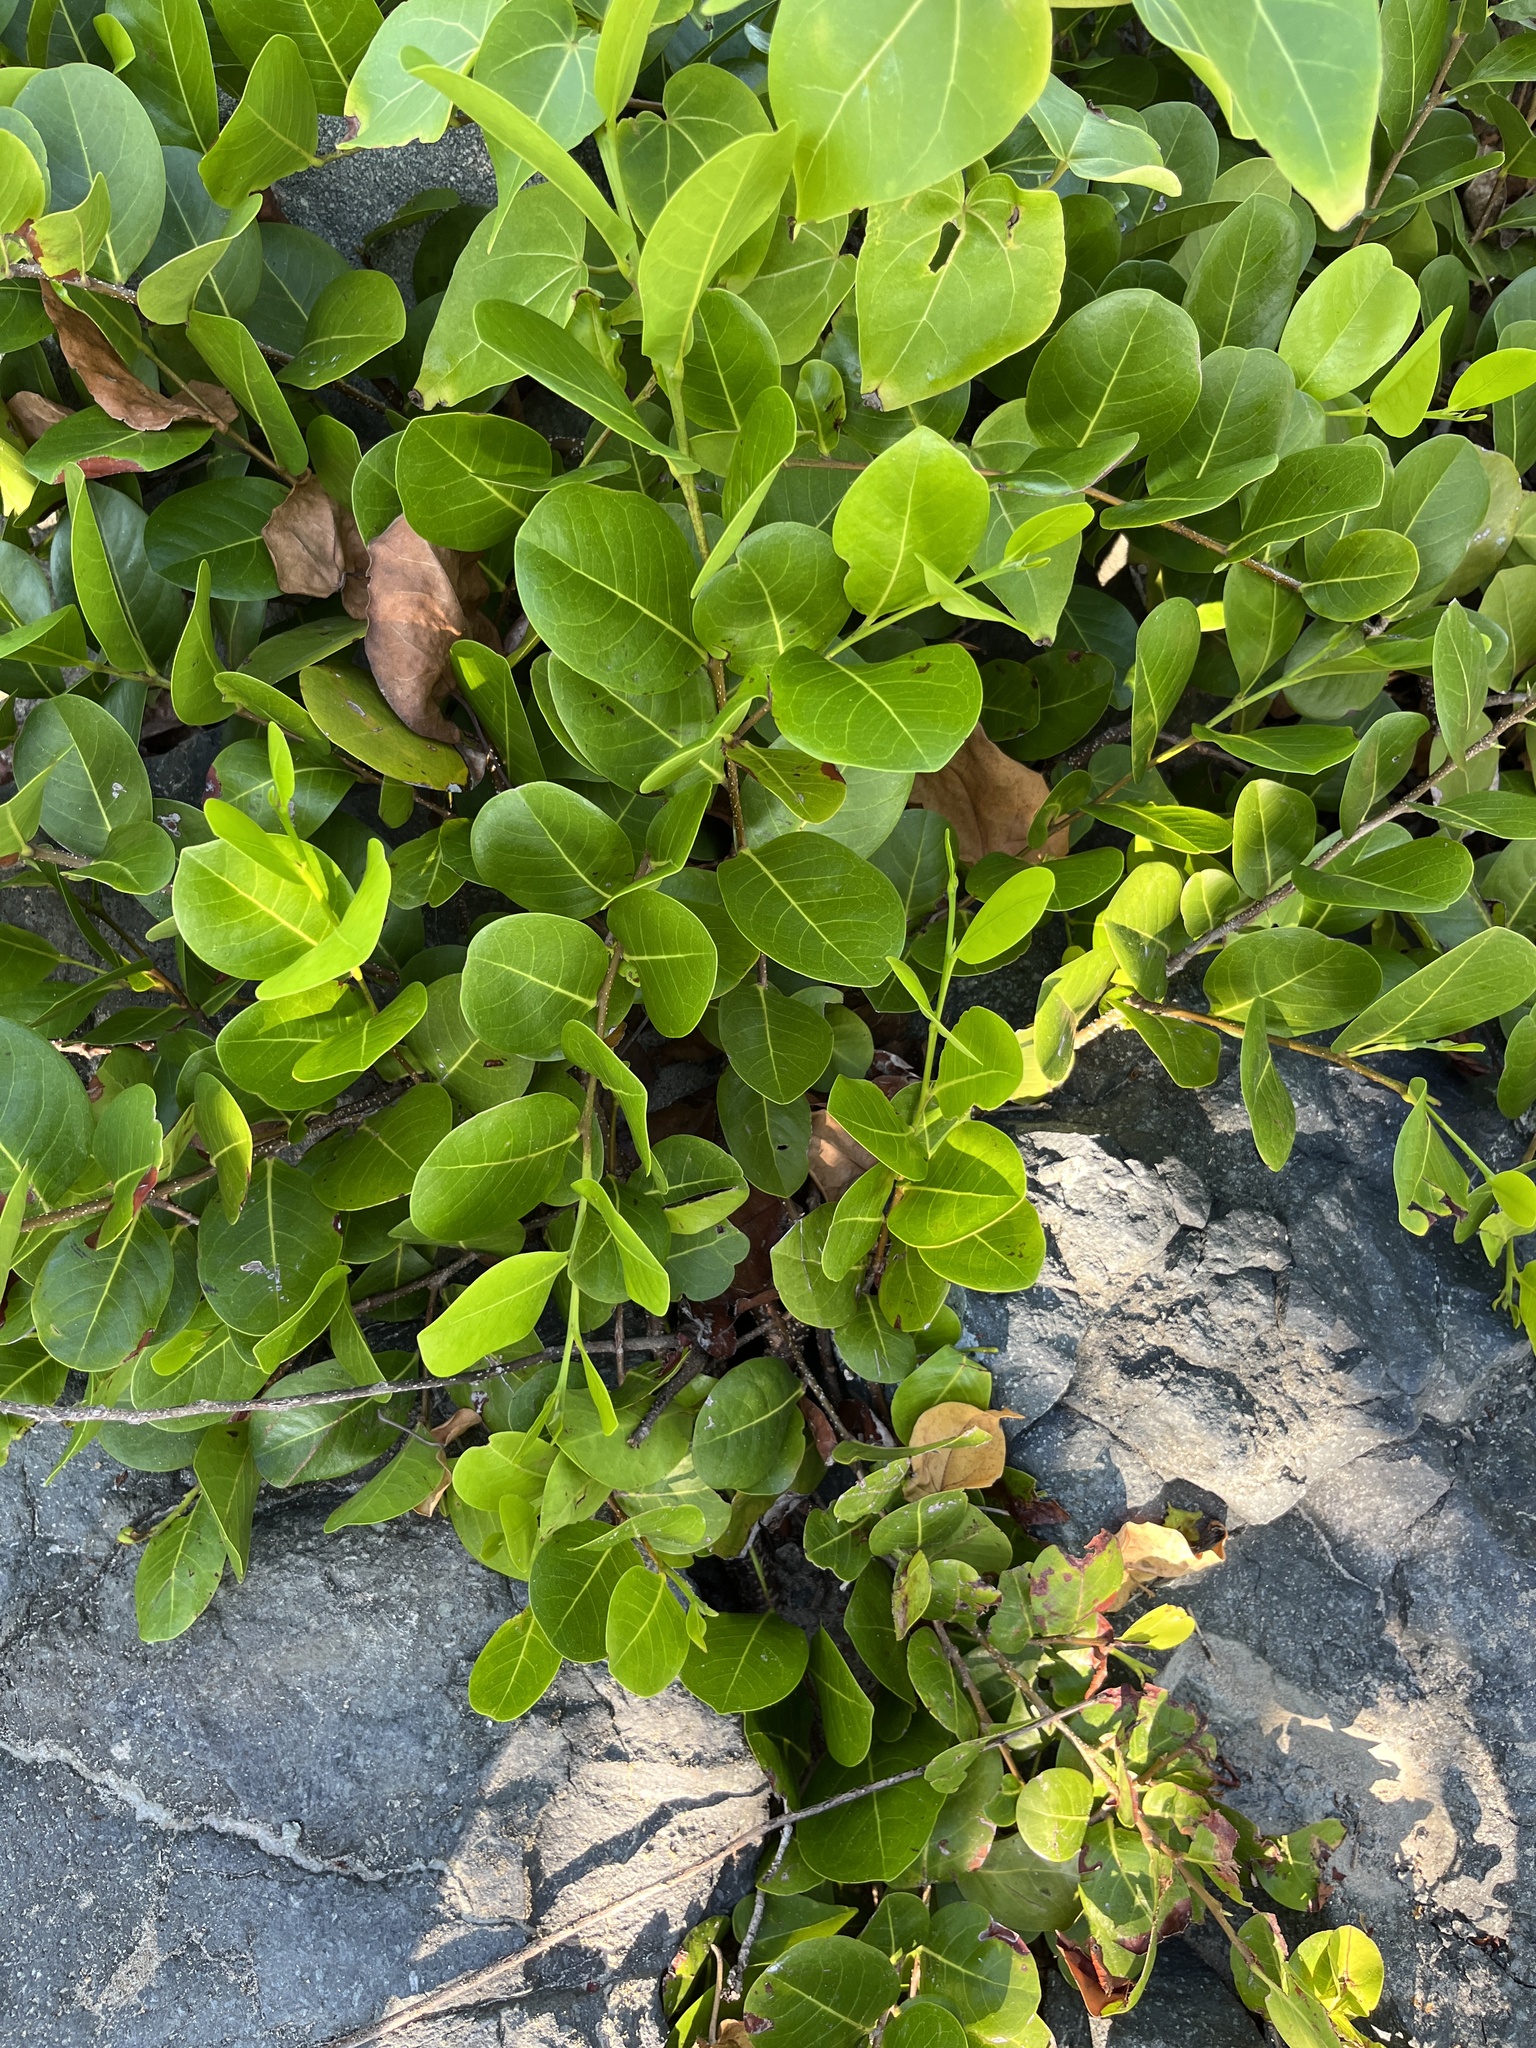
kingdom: Plantae
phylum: Tracheophyta
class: Magnoliopsida
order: Malpighiales
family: Chrysobalanaceae
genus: Chrysobalanus
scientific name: Chrysobalanus icaco
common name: Coco plum
